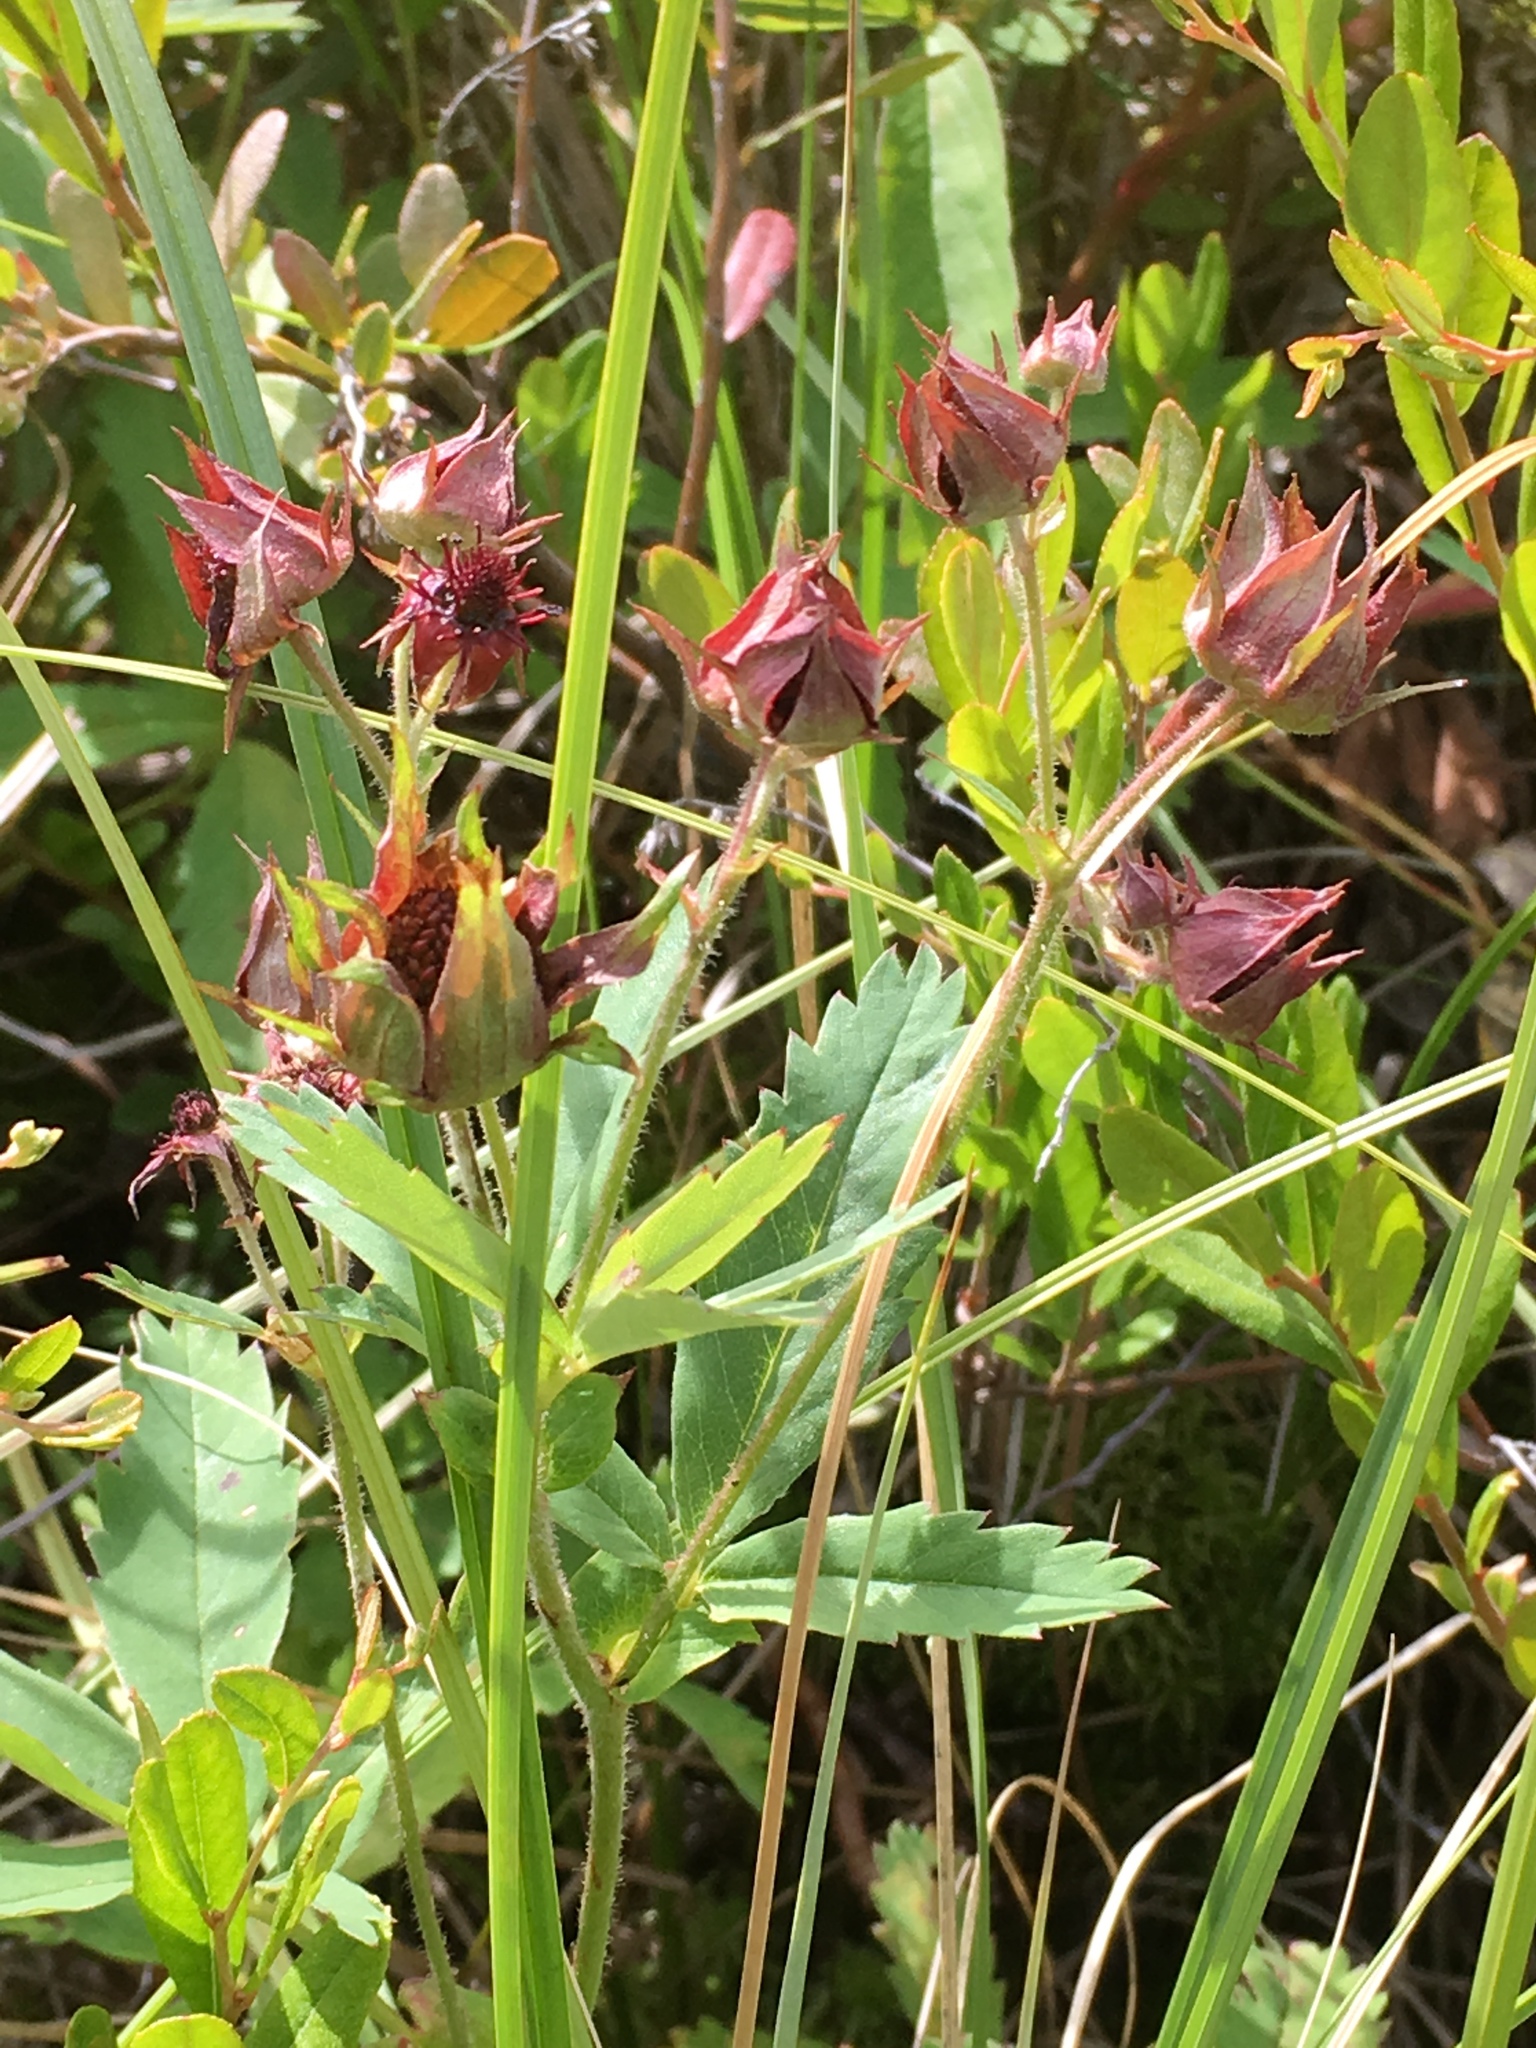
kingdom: Plantae
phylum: Tracheophyta
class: Magnoliopsida
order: Rosales
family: Rosaceae
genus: Comarum
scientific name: Comarum palustre
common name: Marsh cinquefoil
